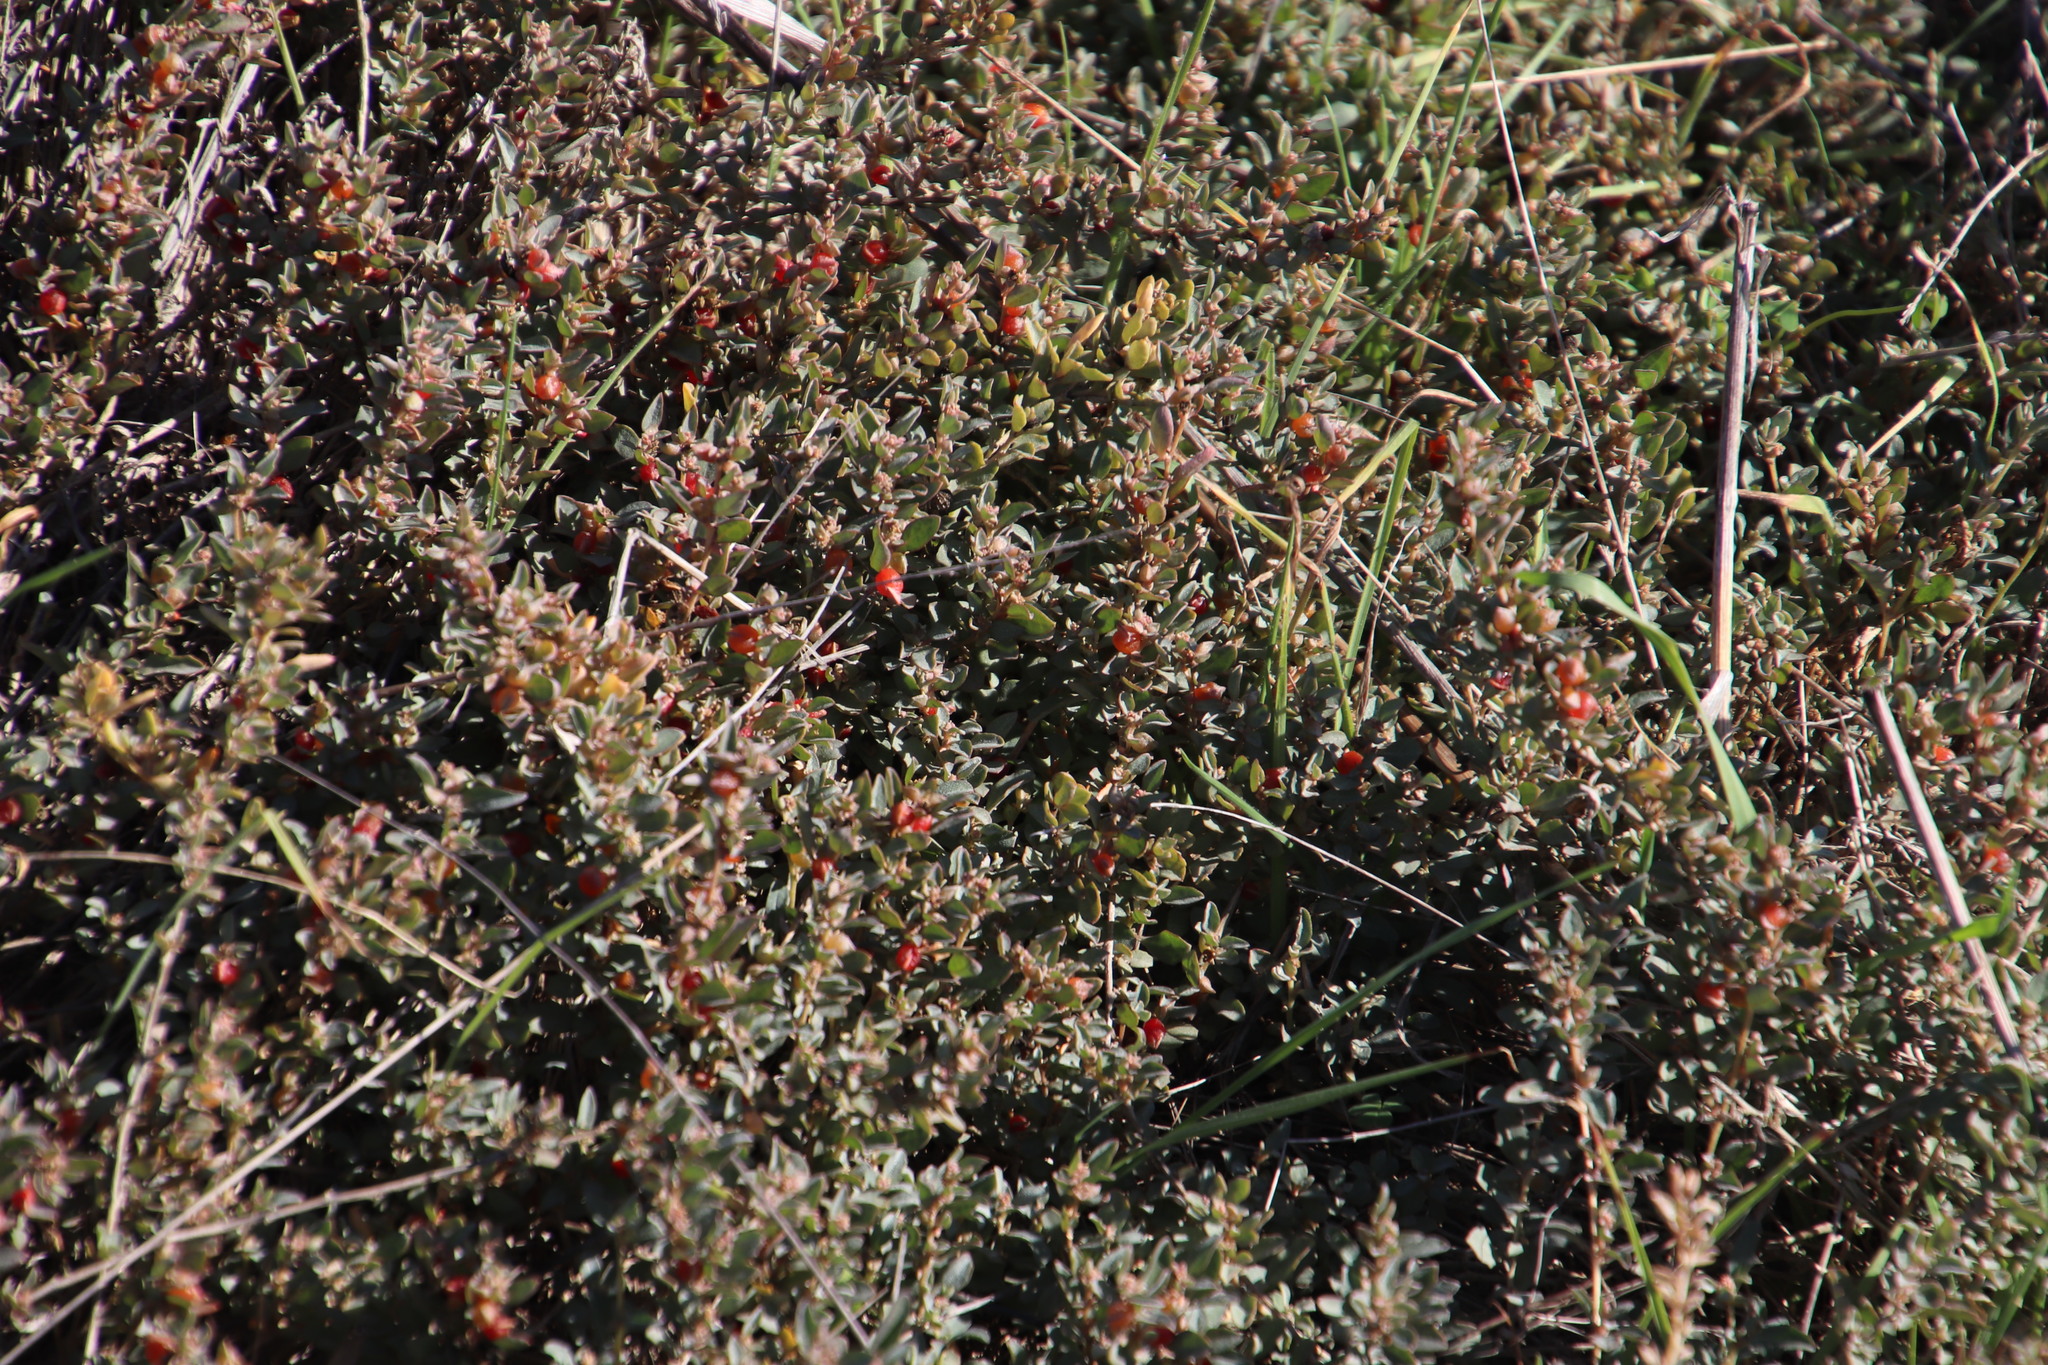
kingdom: Plantae
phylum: Tracheophyta
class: Magnoliopsida
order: Caryophyllales
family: Amaranthaceae
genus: Atriplex
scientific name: Atriplex semibaccata
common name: Australian saltbush
